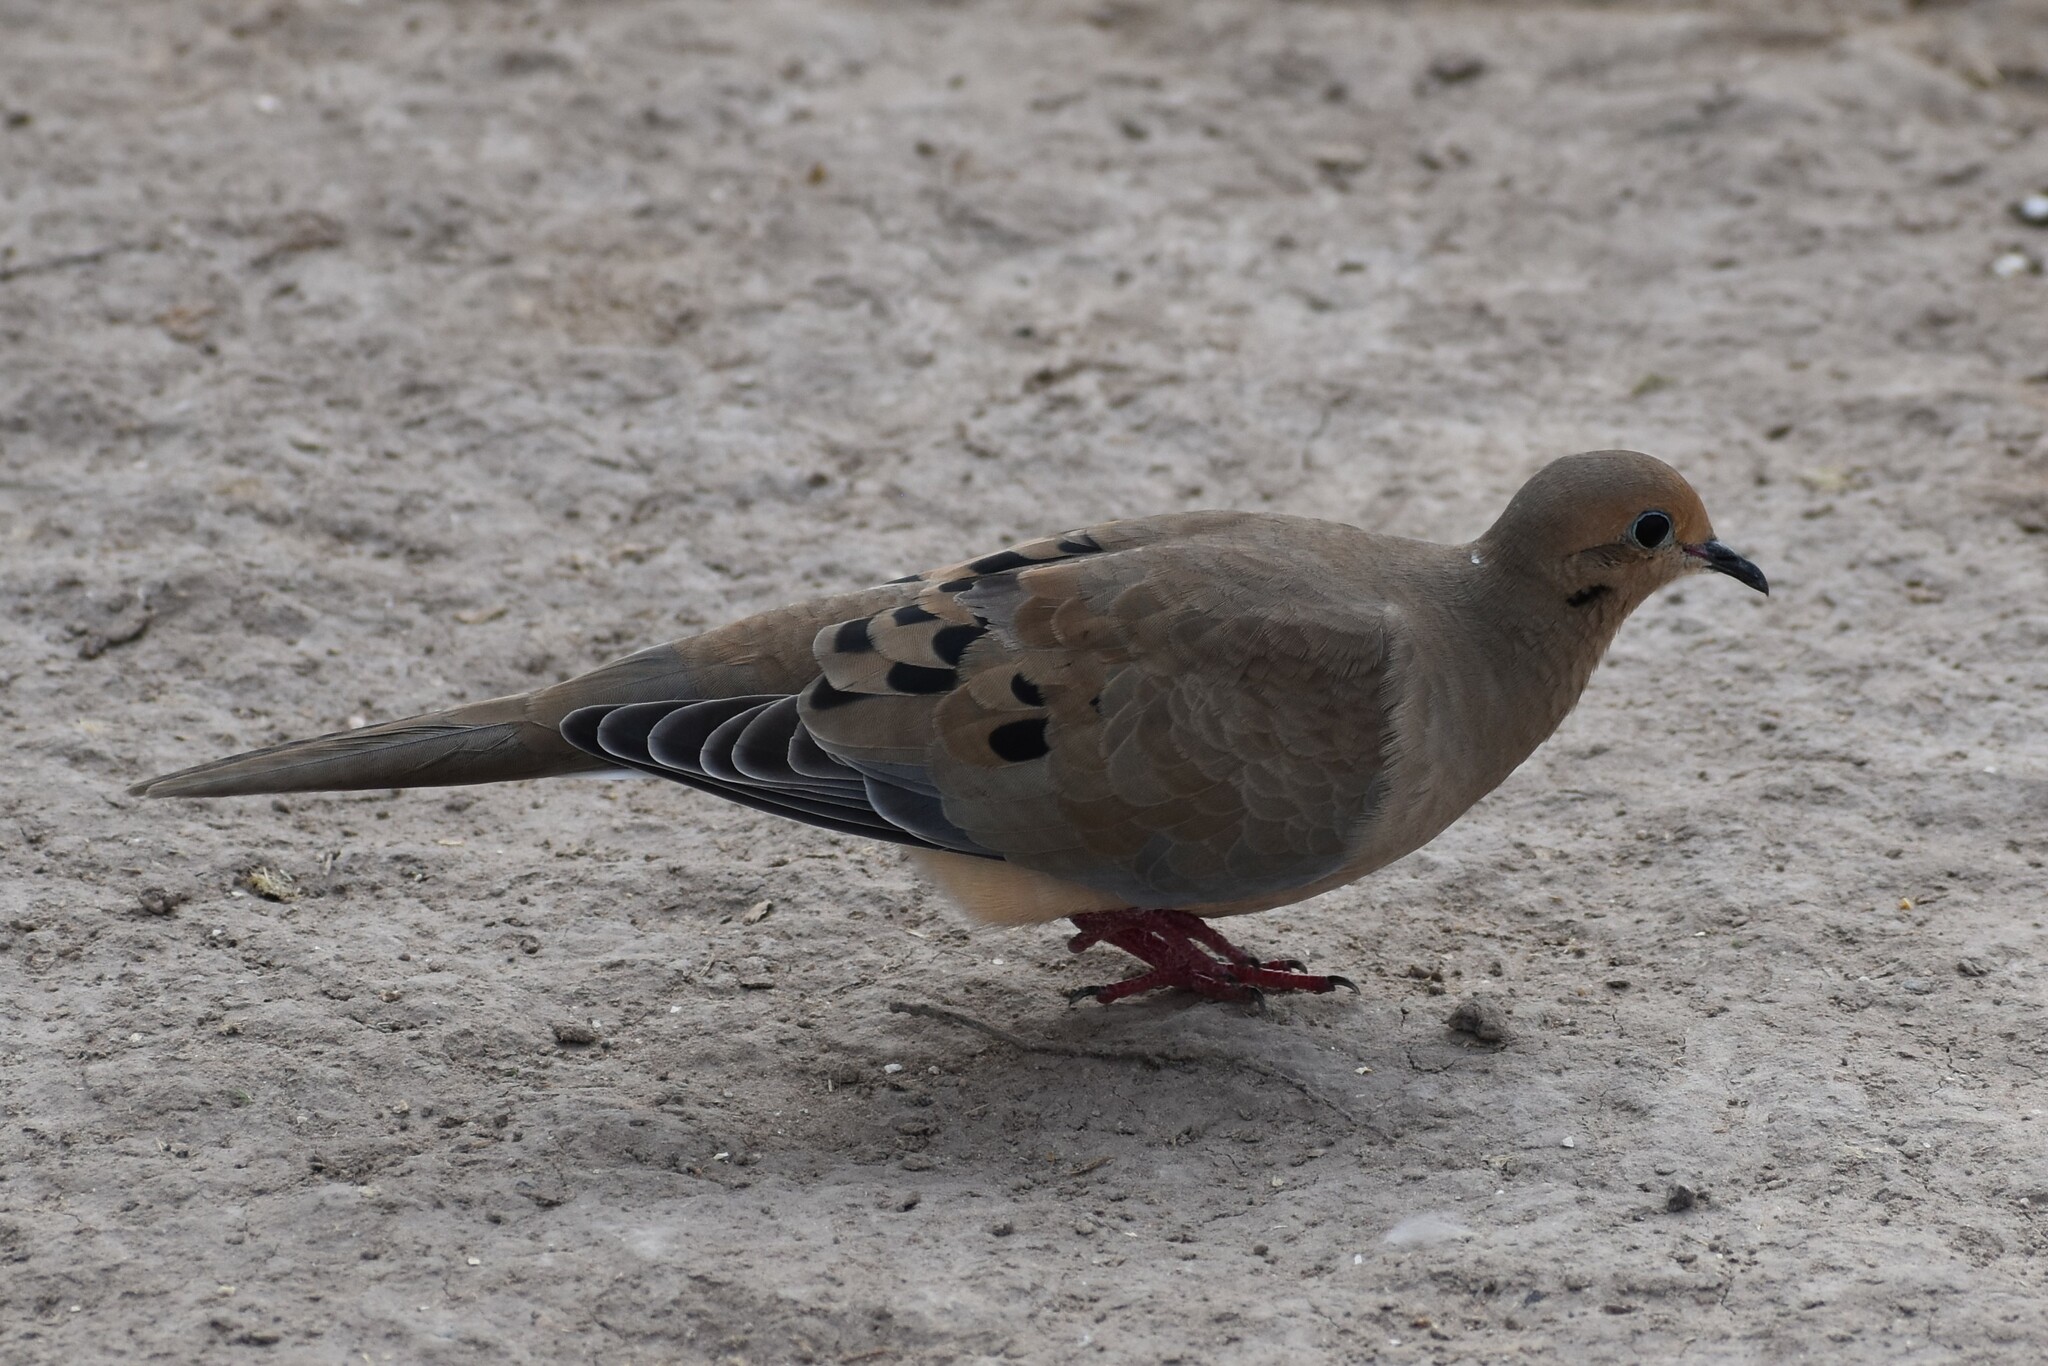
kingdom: Animalia
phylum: Chordata
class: Aves
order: Columbiformes
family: Columbidae
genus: Zenaida
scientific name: Zenaida macroura
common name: Mourning dove
